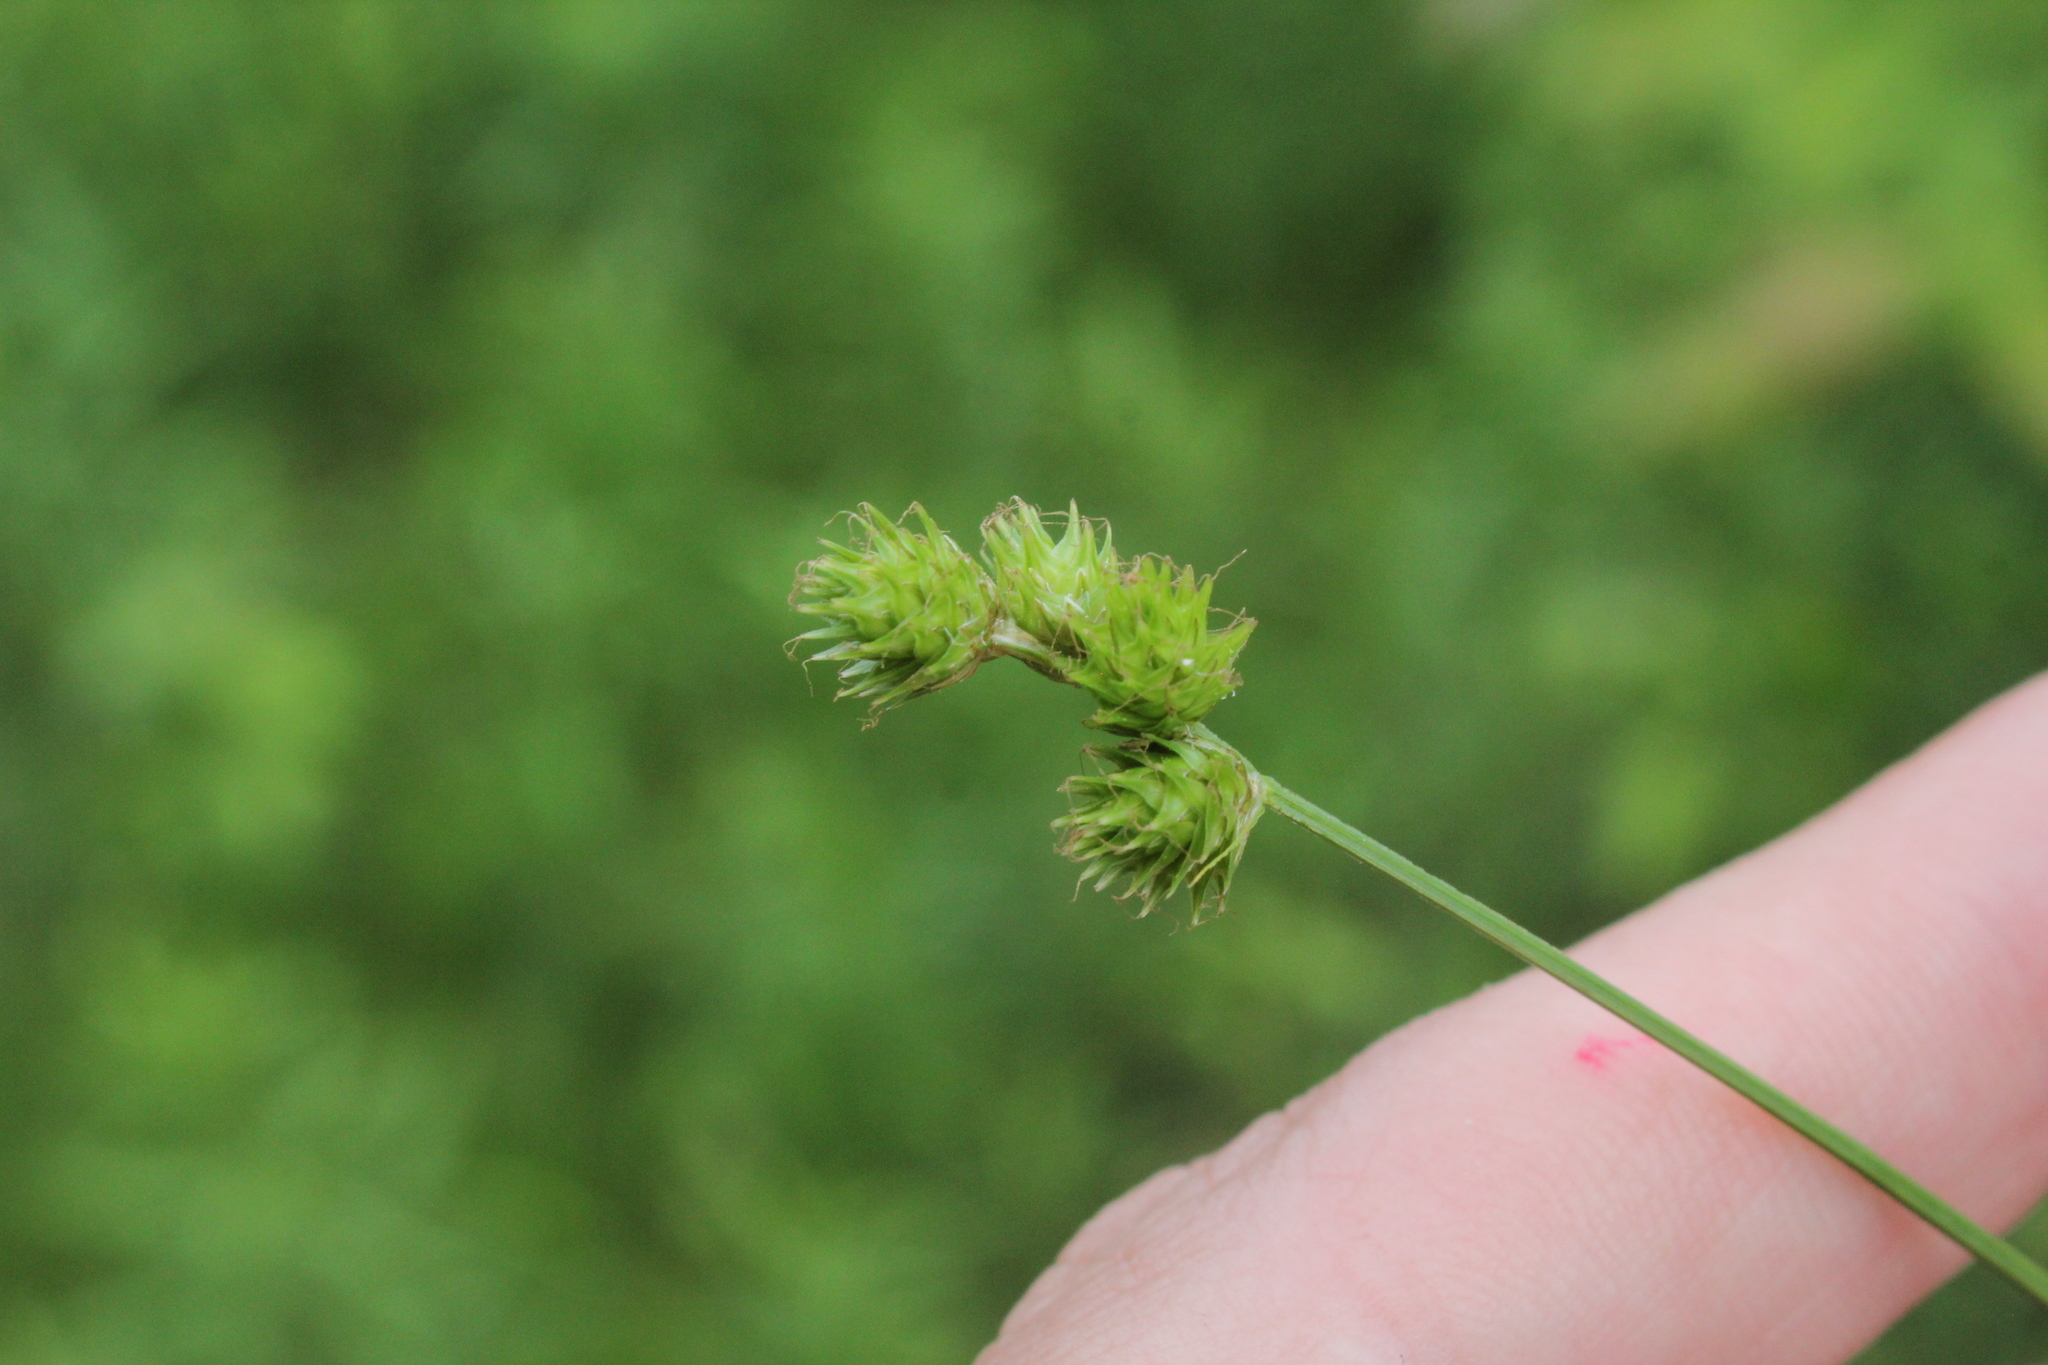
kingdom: Plantae
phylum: Tracheophyta
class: Liliopsida
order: Poales
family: Cyperaceae
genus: Carex
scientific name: Carex molesta
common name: Troublesome sedge
